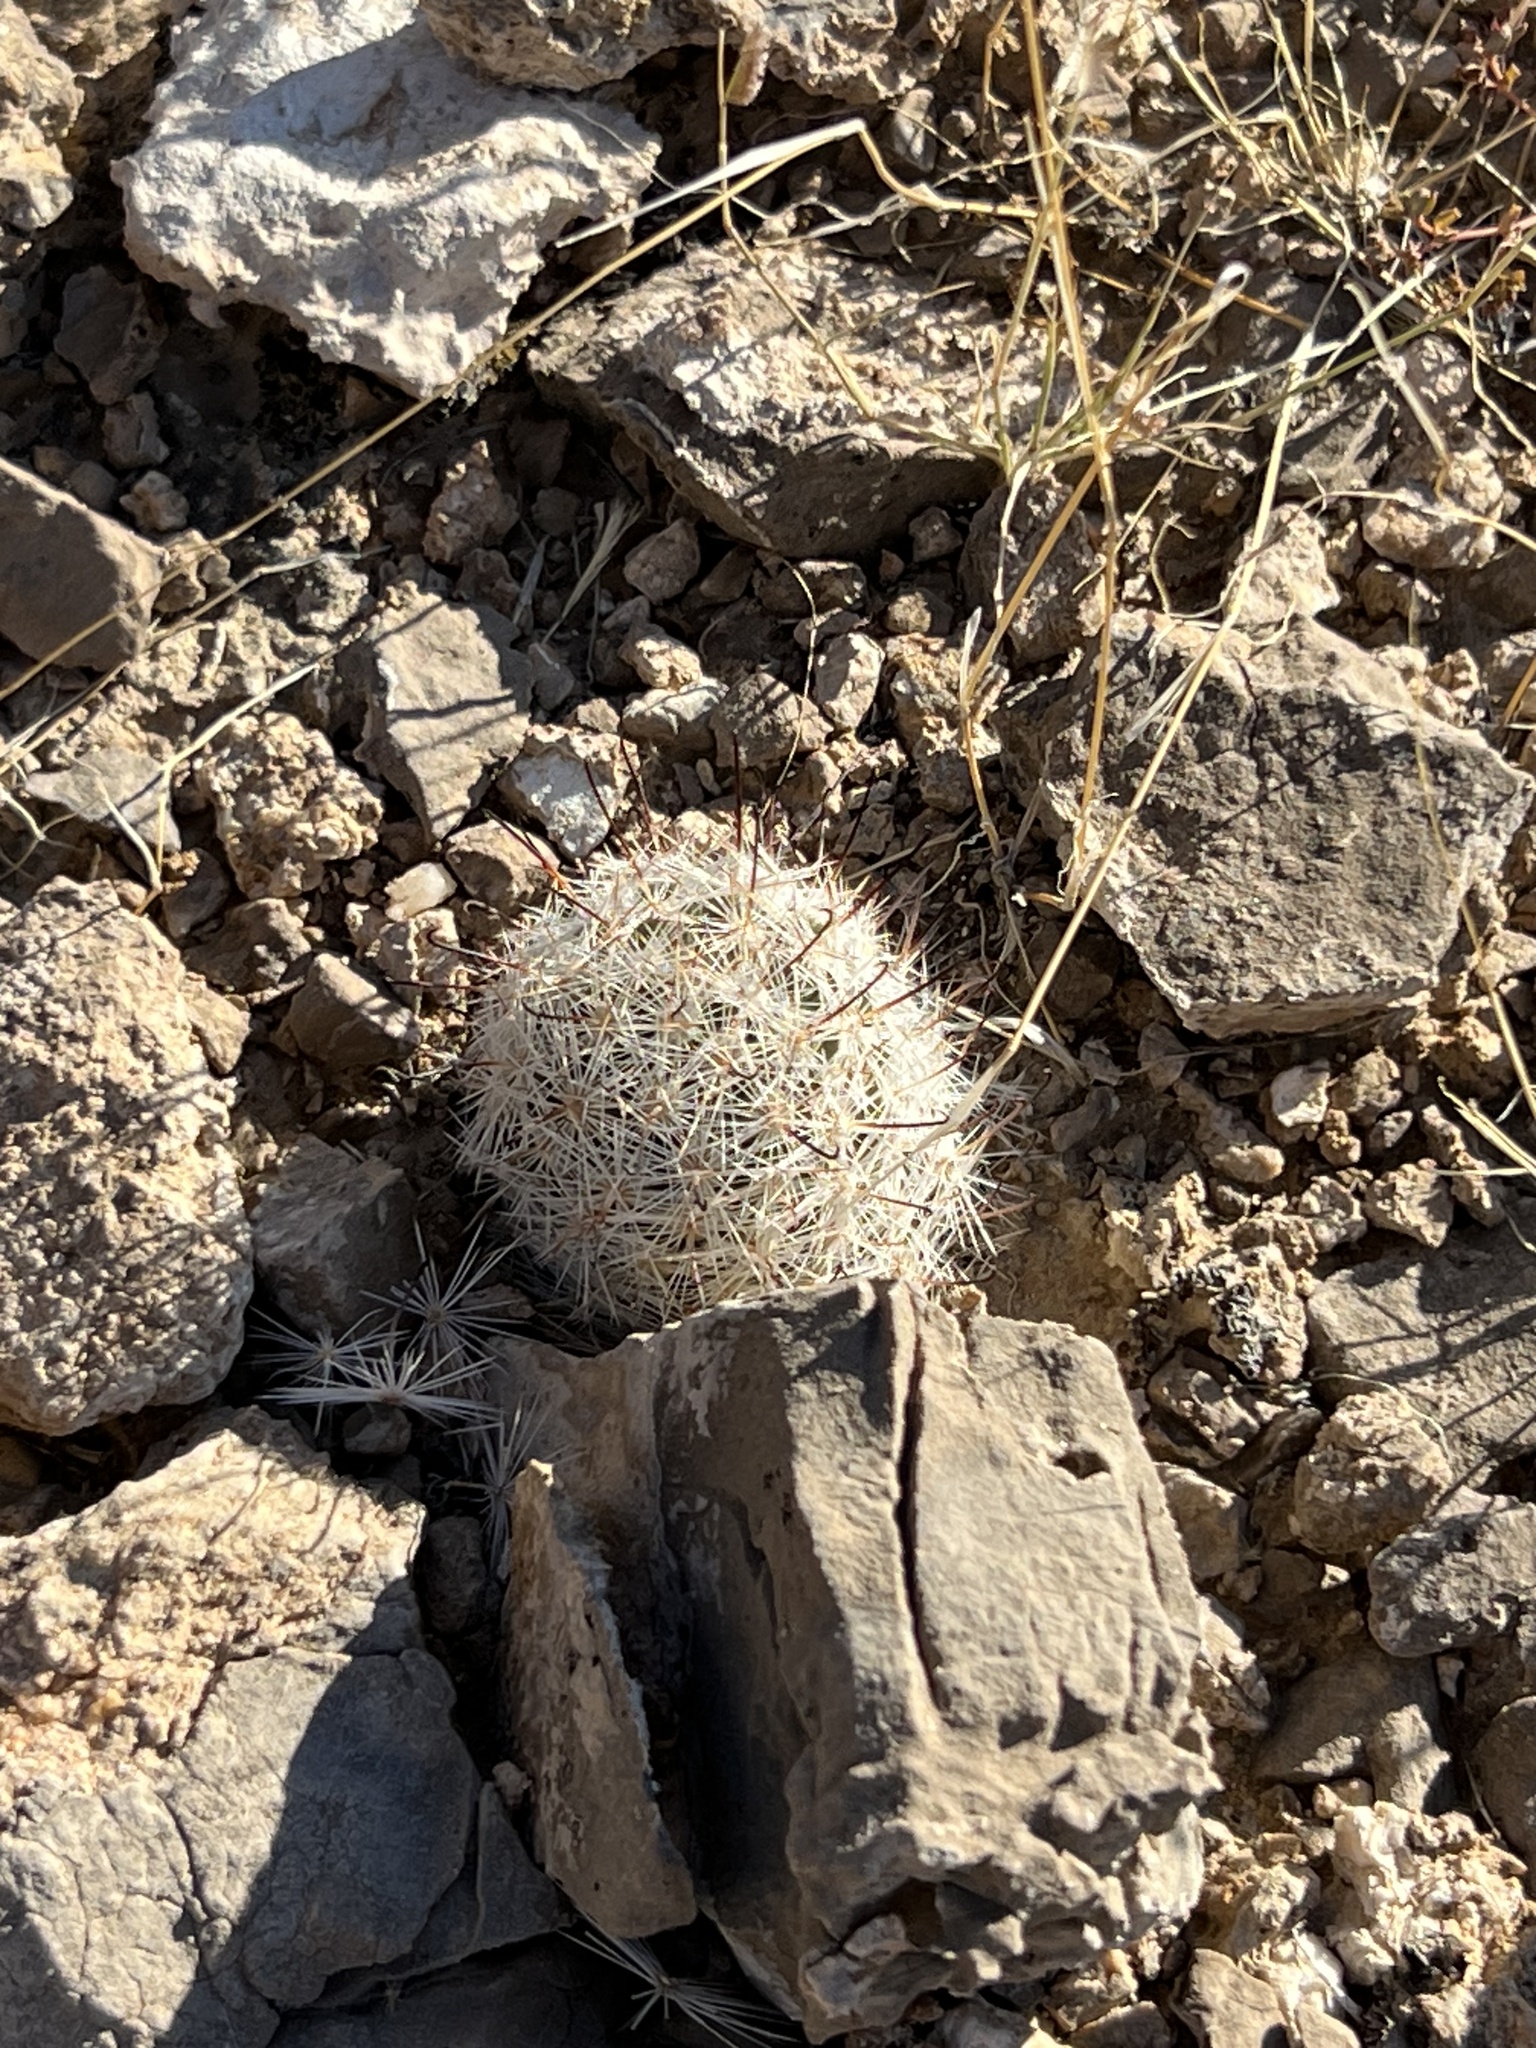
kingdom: Plantae
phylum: Tracheophyta
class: Magnoliopsida
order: Caryophyllales
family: Cactaceae
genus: Cochemiea
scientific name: Cochemiea tetrancistra
